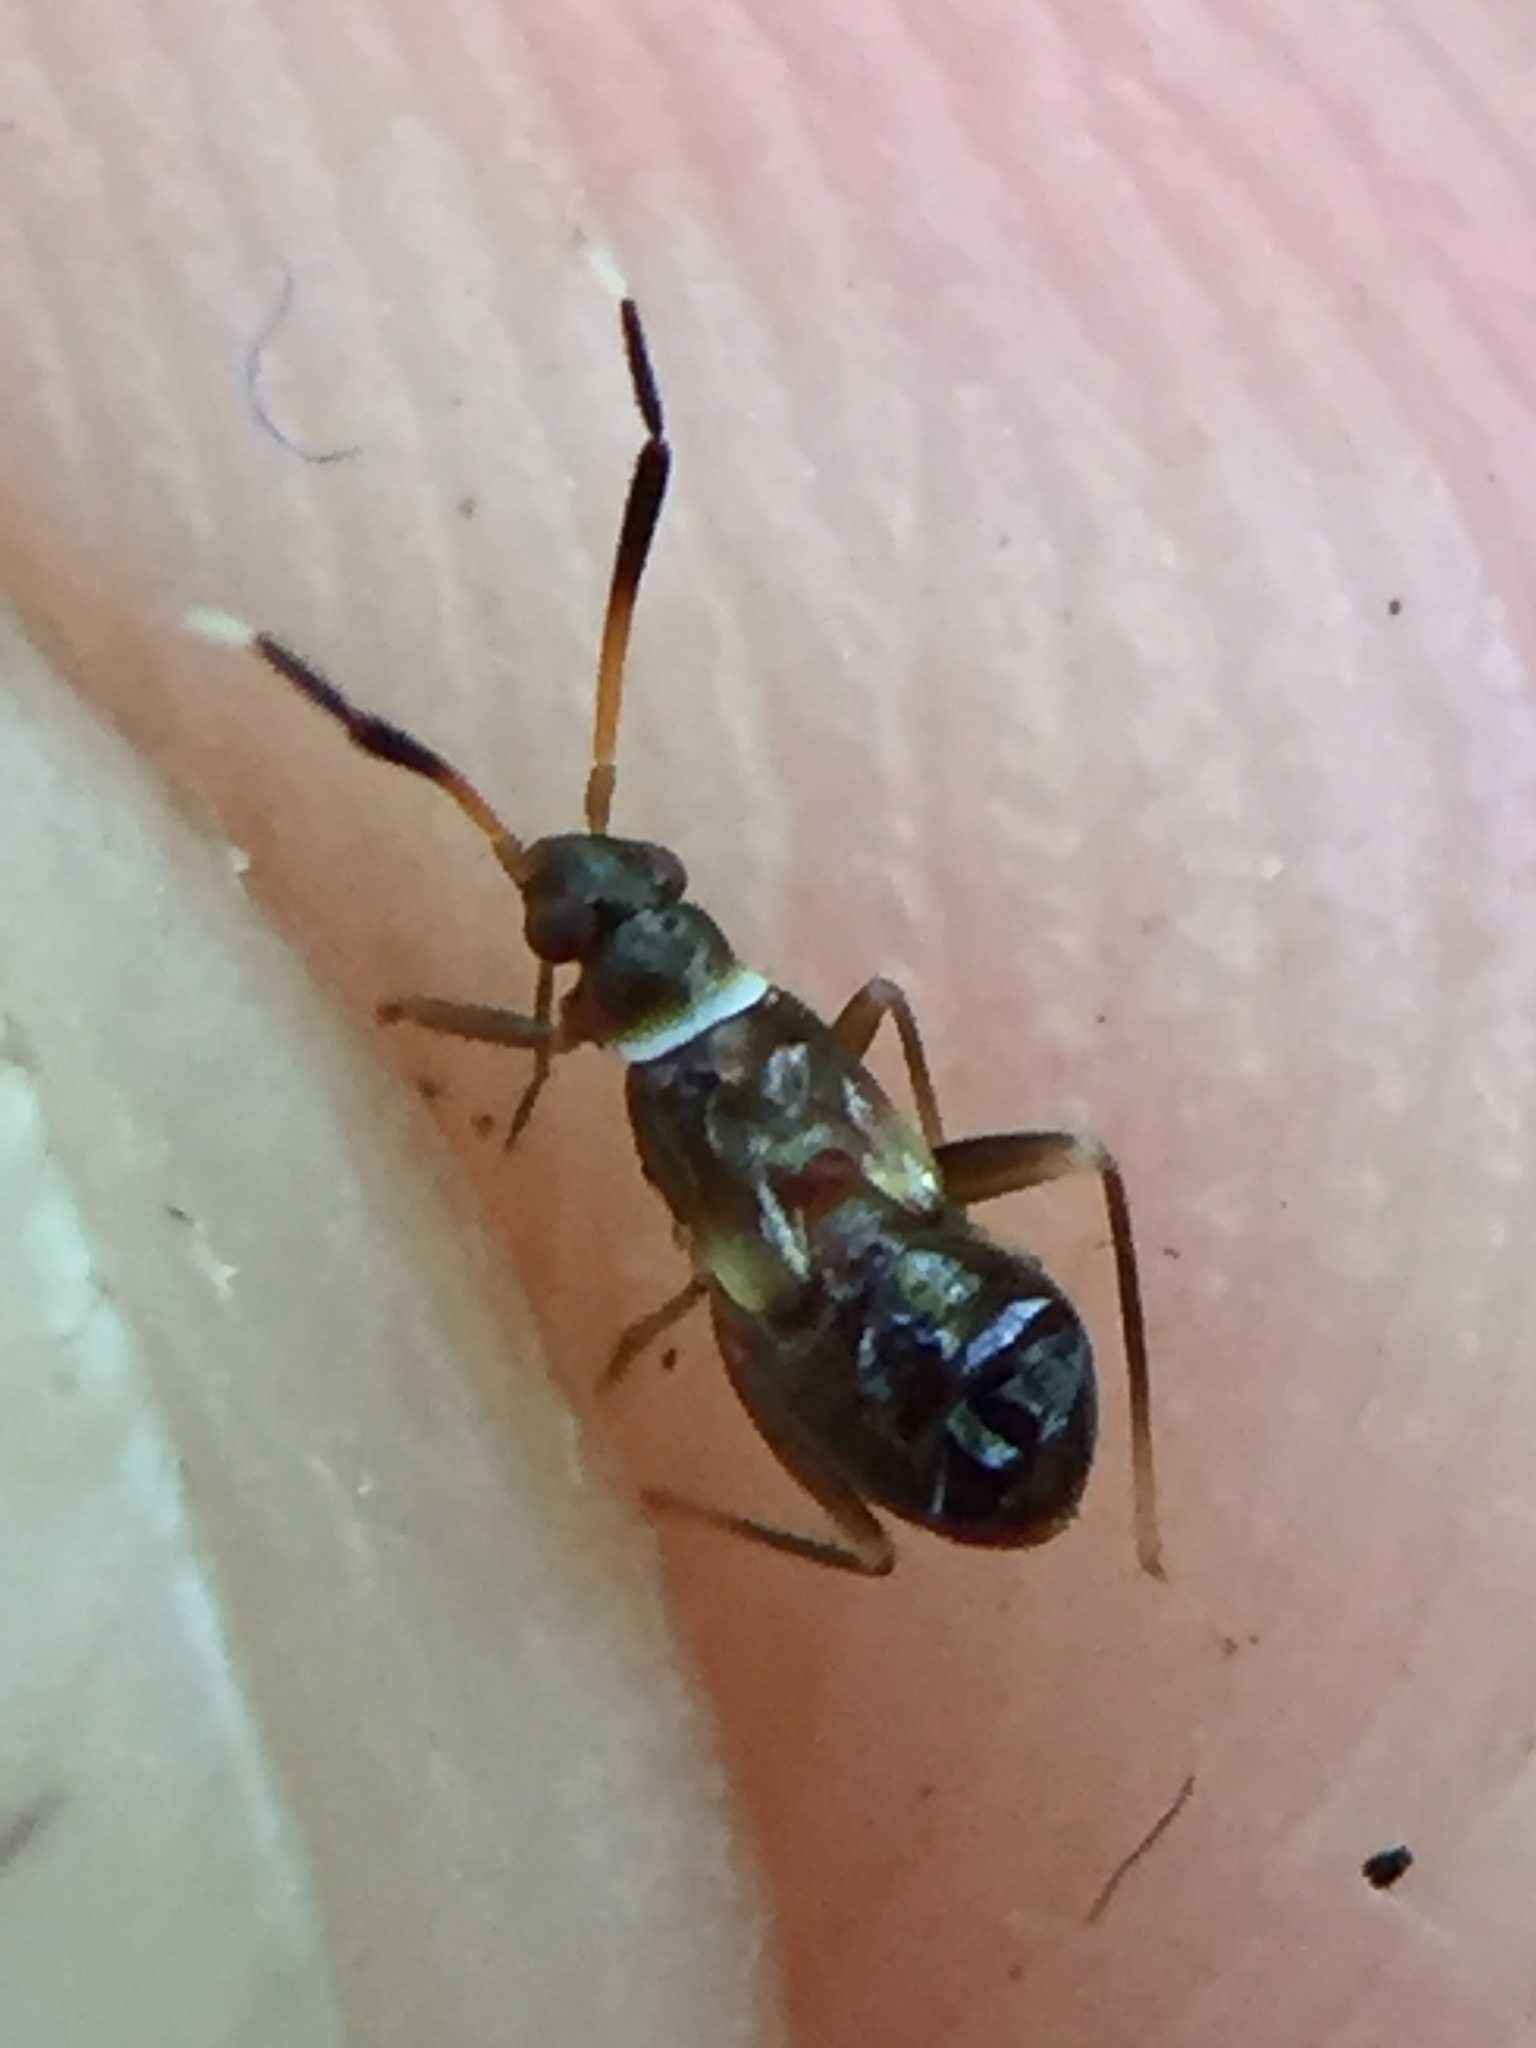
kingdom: Animalia
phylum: Arthropoda
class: Insecta
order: Hemiptera
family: Miridae
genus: Mecenopa
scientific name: Mecenopa albiapex
